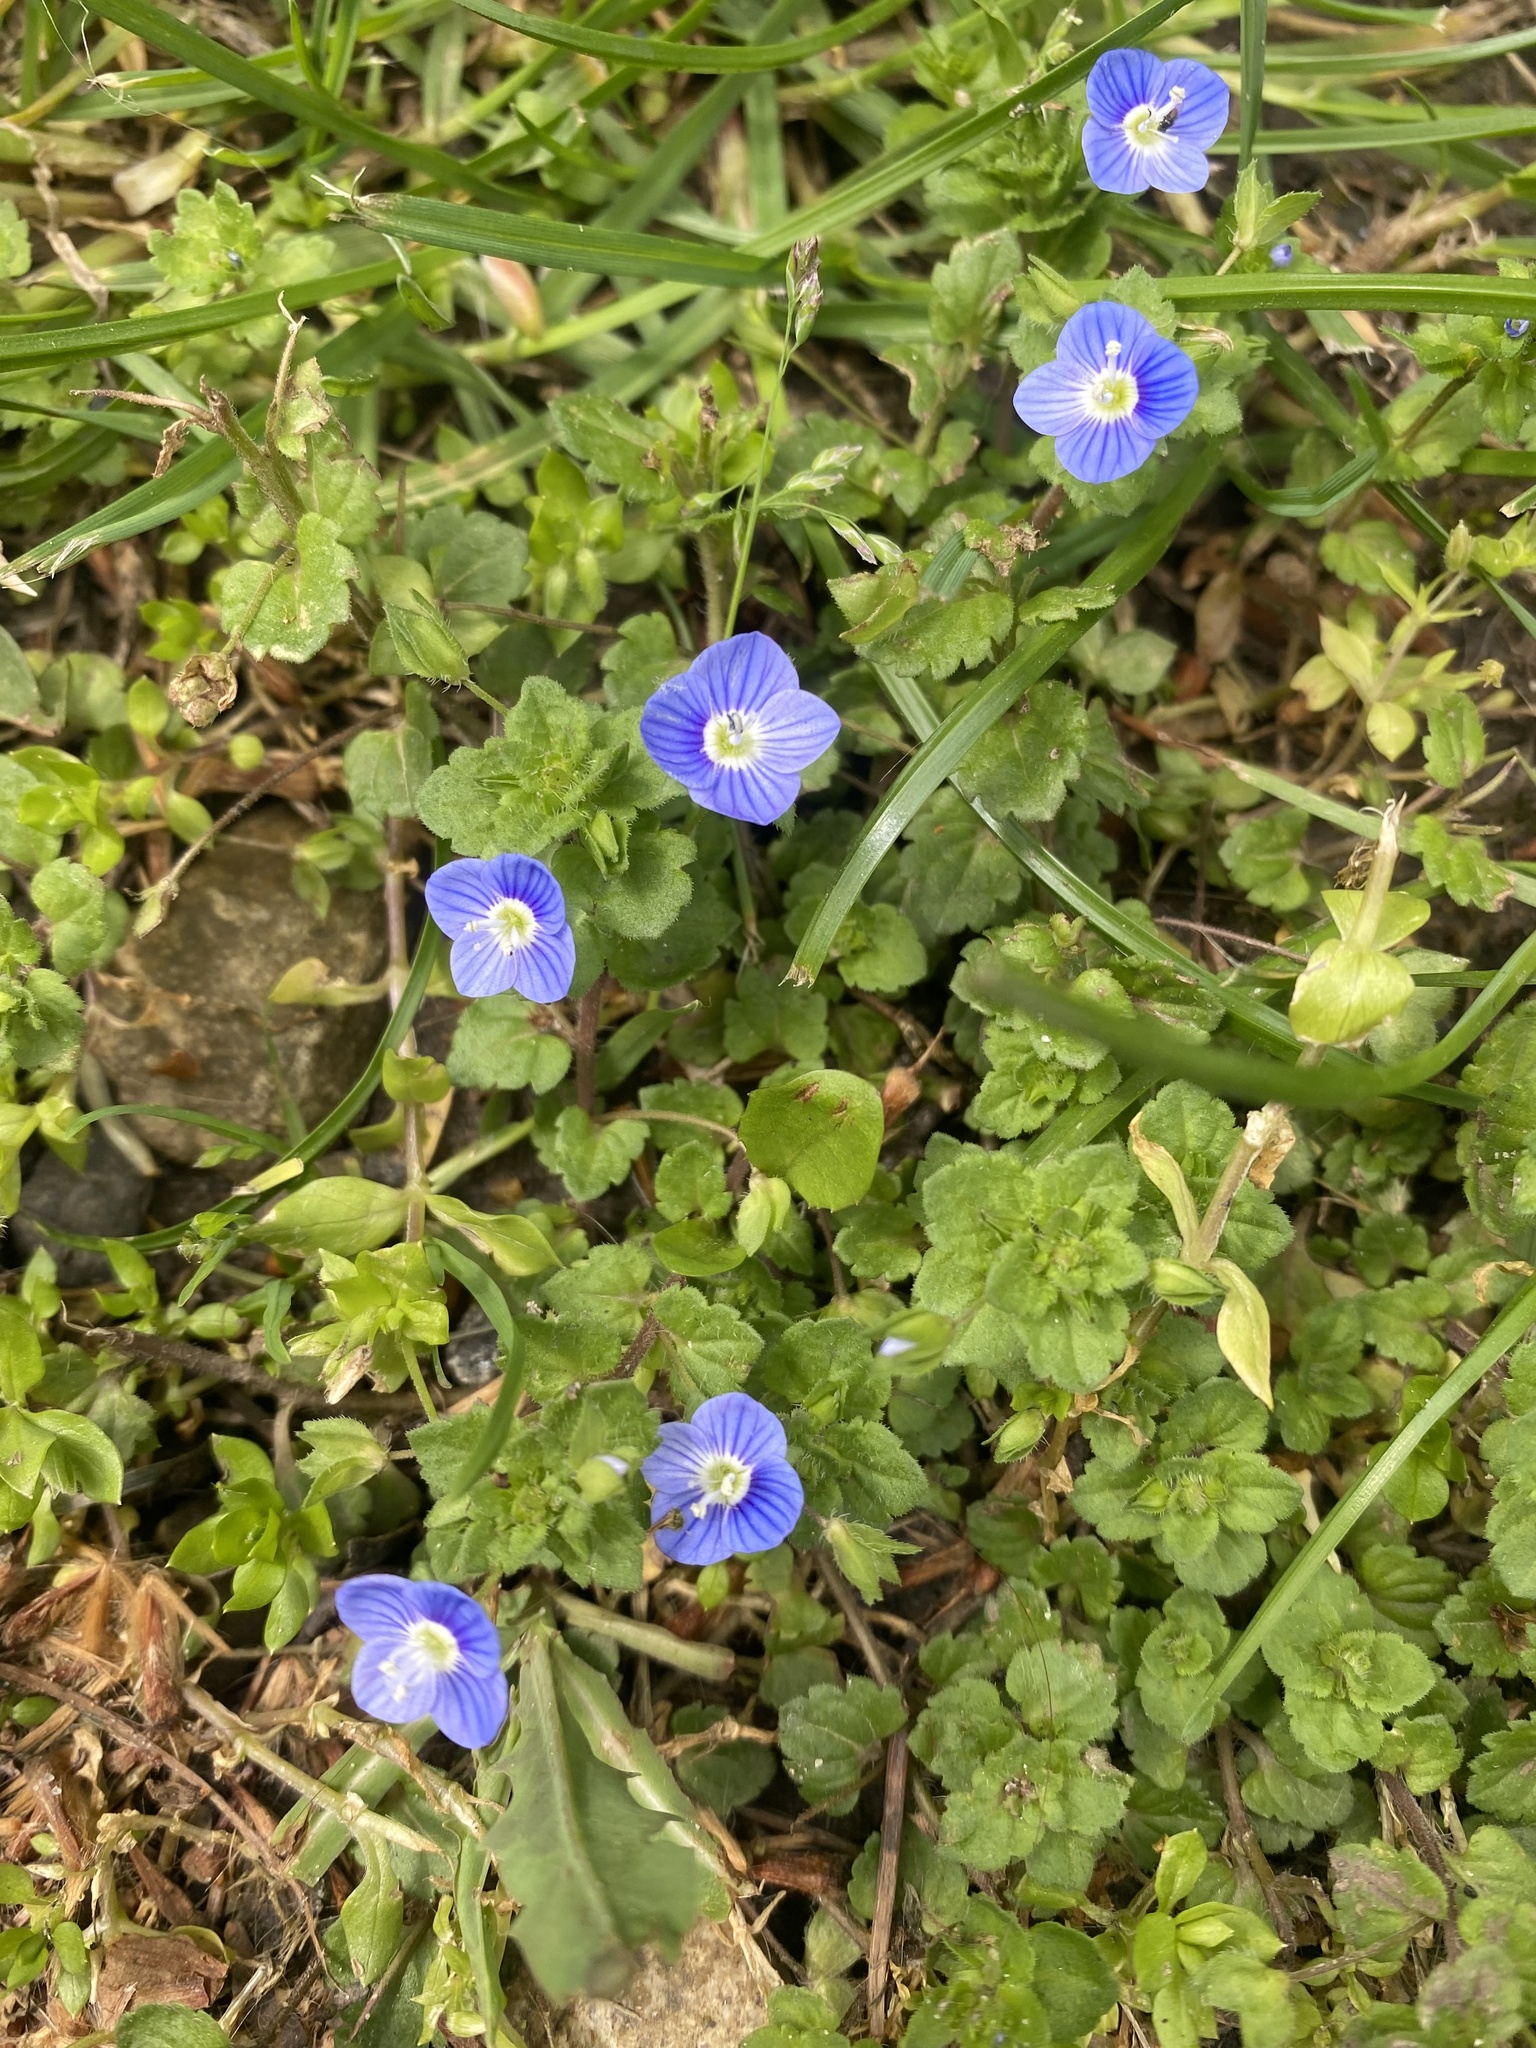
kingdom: Plantae
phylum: Tracheophyta
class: Magnoliopsida
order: Lamiales
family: Plantaginaceae
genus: Veronica
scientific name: Veronica persica
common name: Common field-speedwell
